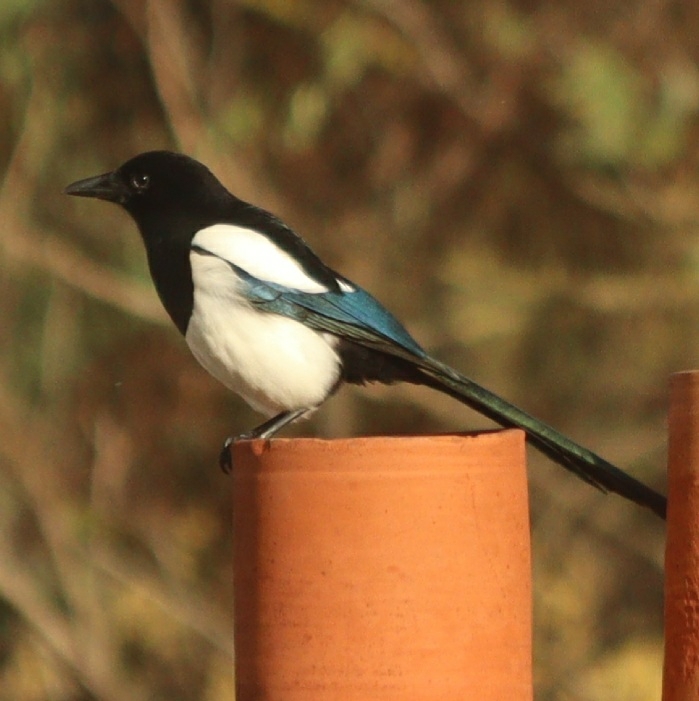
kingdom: Animalia
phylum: Chordata
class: Aves
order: Passeriformes
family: Corvidae
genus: Pica
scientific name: Pica pica
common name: Eurasian magpie
